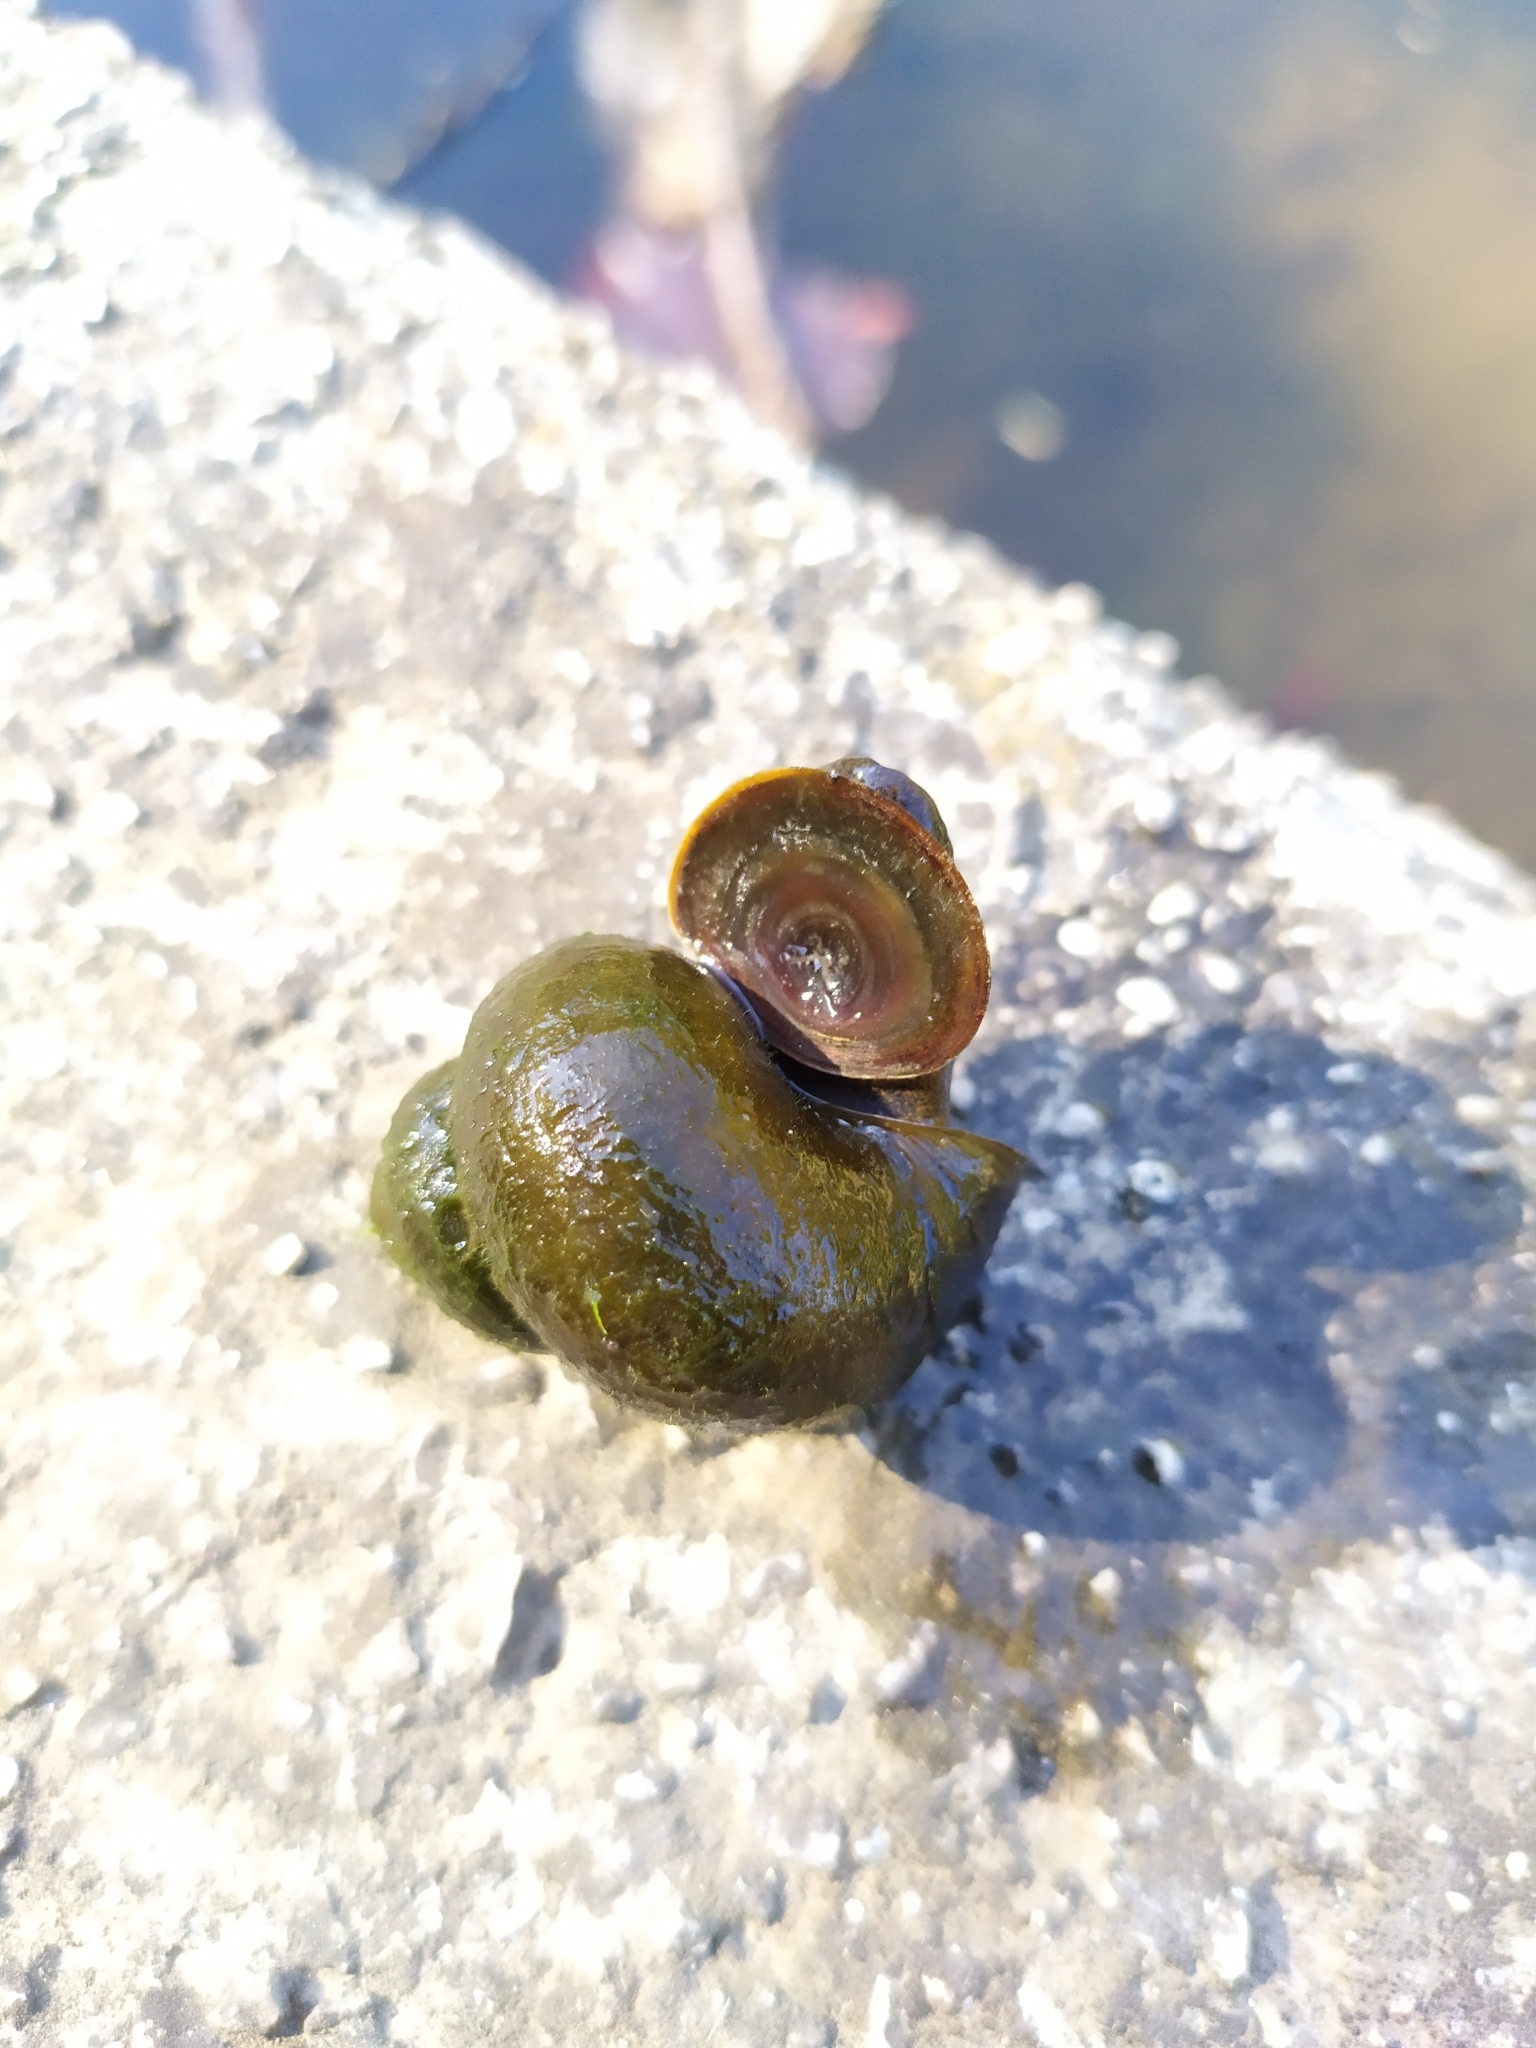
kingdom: Animalia
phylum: Mollusca
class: Gastropoda
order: Architaenioglossa
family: Viviparidae
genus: Viviparus
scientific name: Viviparus contectus
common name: Lister's river snail
